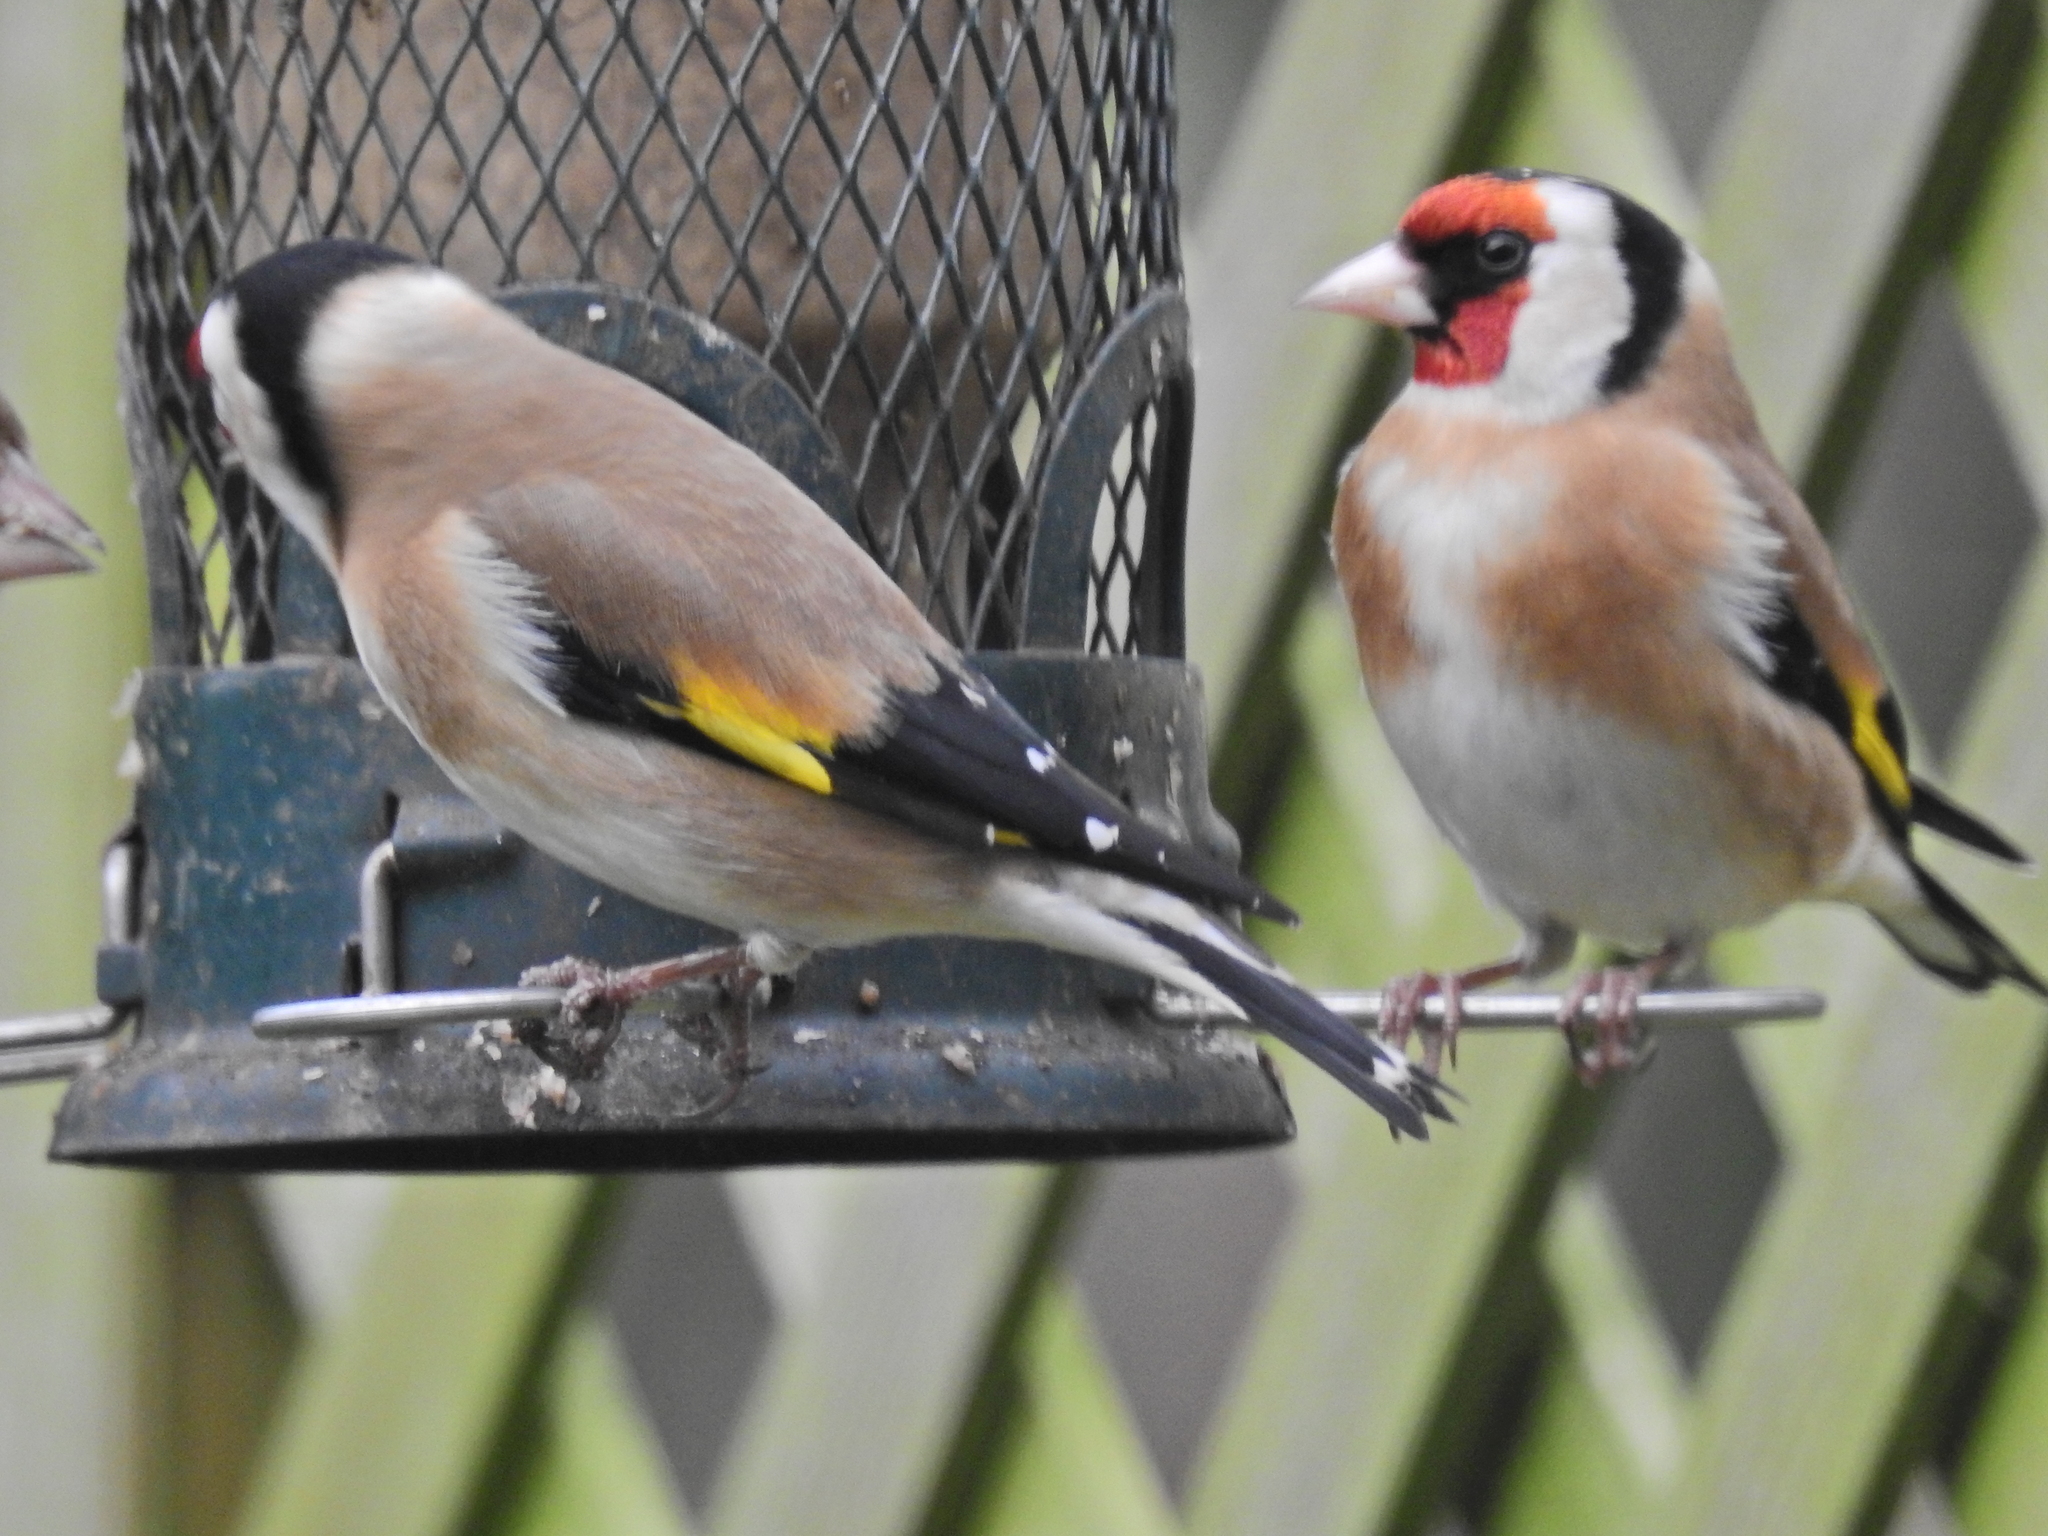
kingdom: Animalia
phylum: Chordata
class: Aves
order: Passeriformes
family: Fringillidae
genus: Carduelis
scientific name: Carduelis carduelis
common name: European goldfinch
